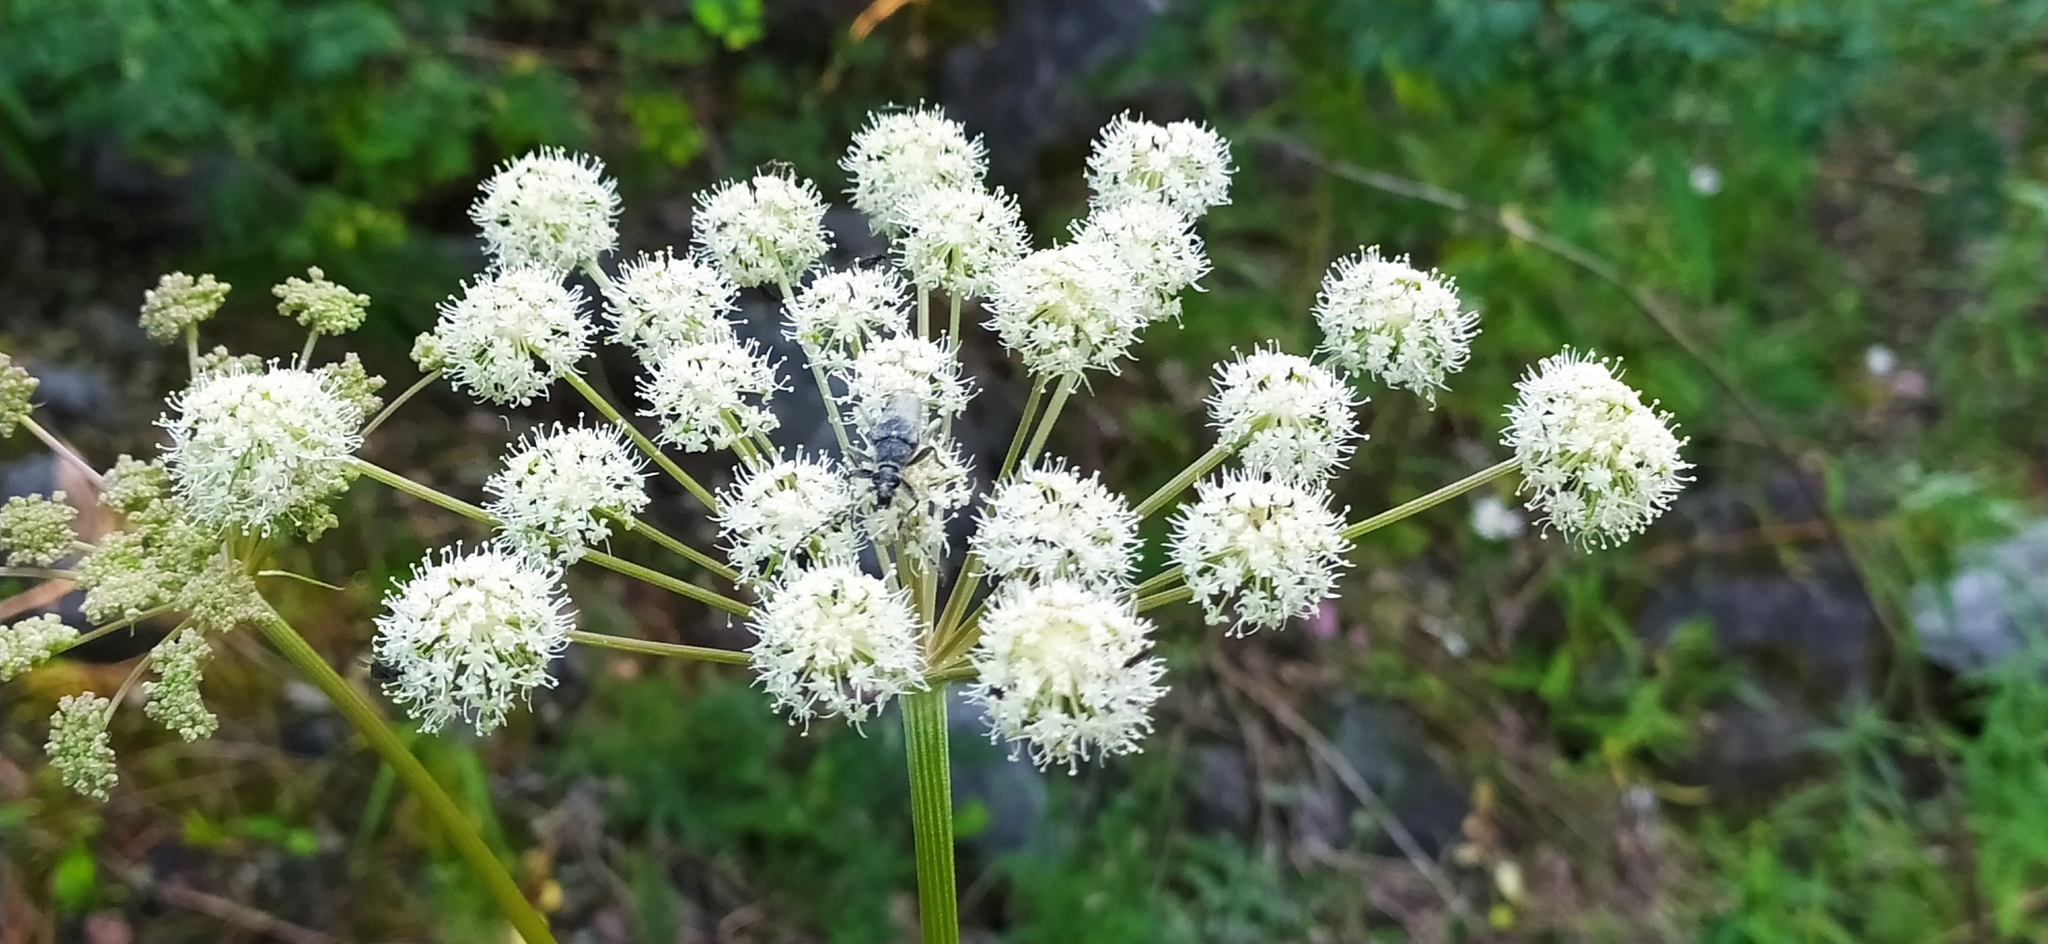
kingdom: Plantae
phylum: Tracheophyta
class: Magnoliopsida
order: Apiales
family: Apiaceae
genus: Angelica
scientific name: Angelica sylvestris
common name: Wild angelica
